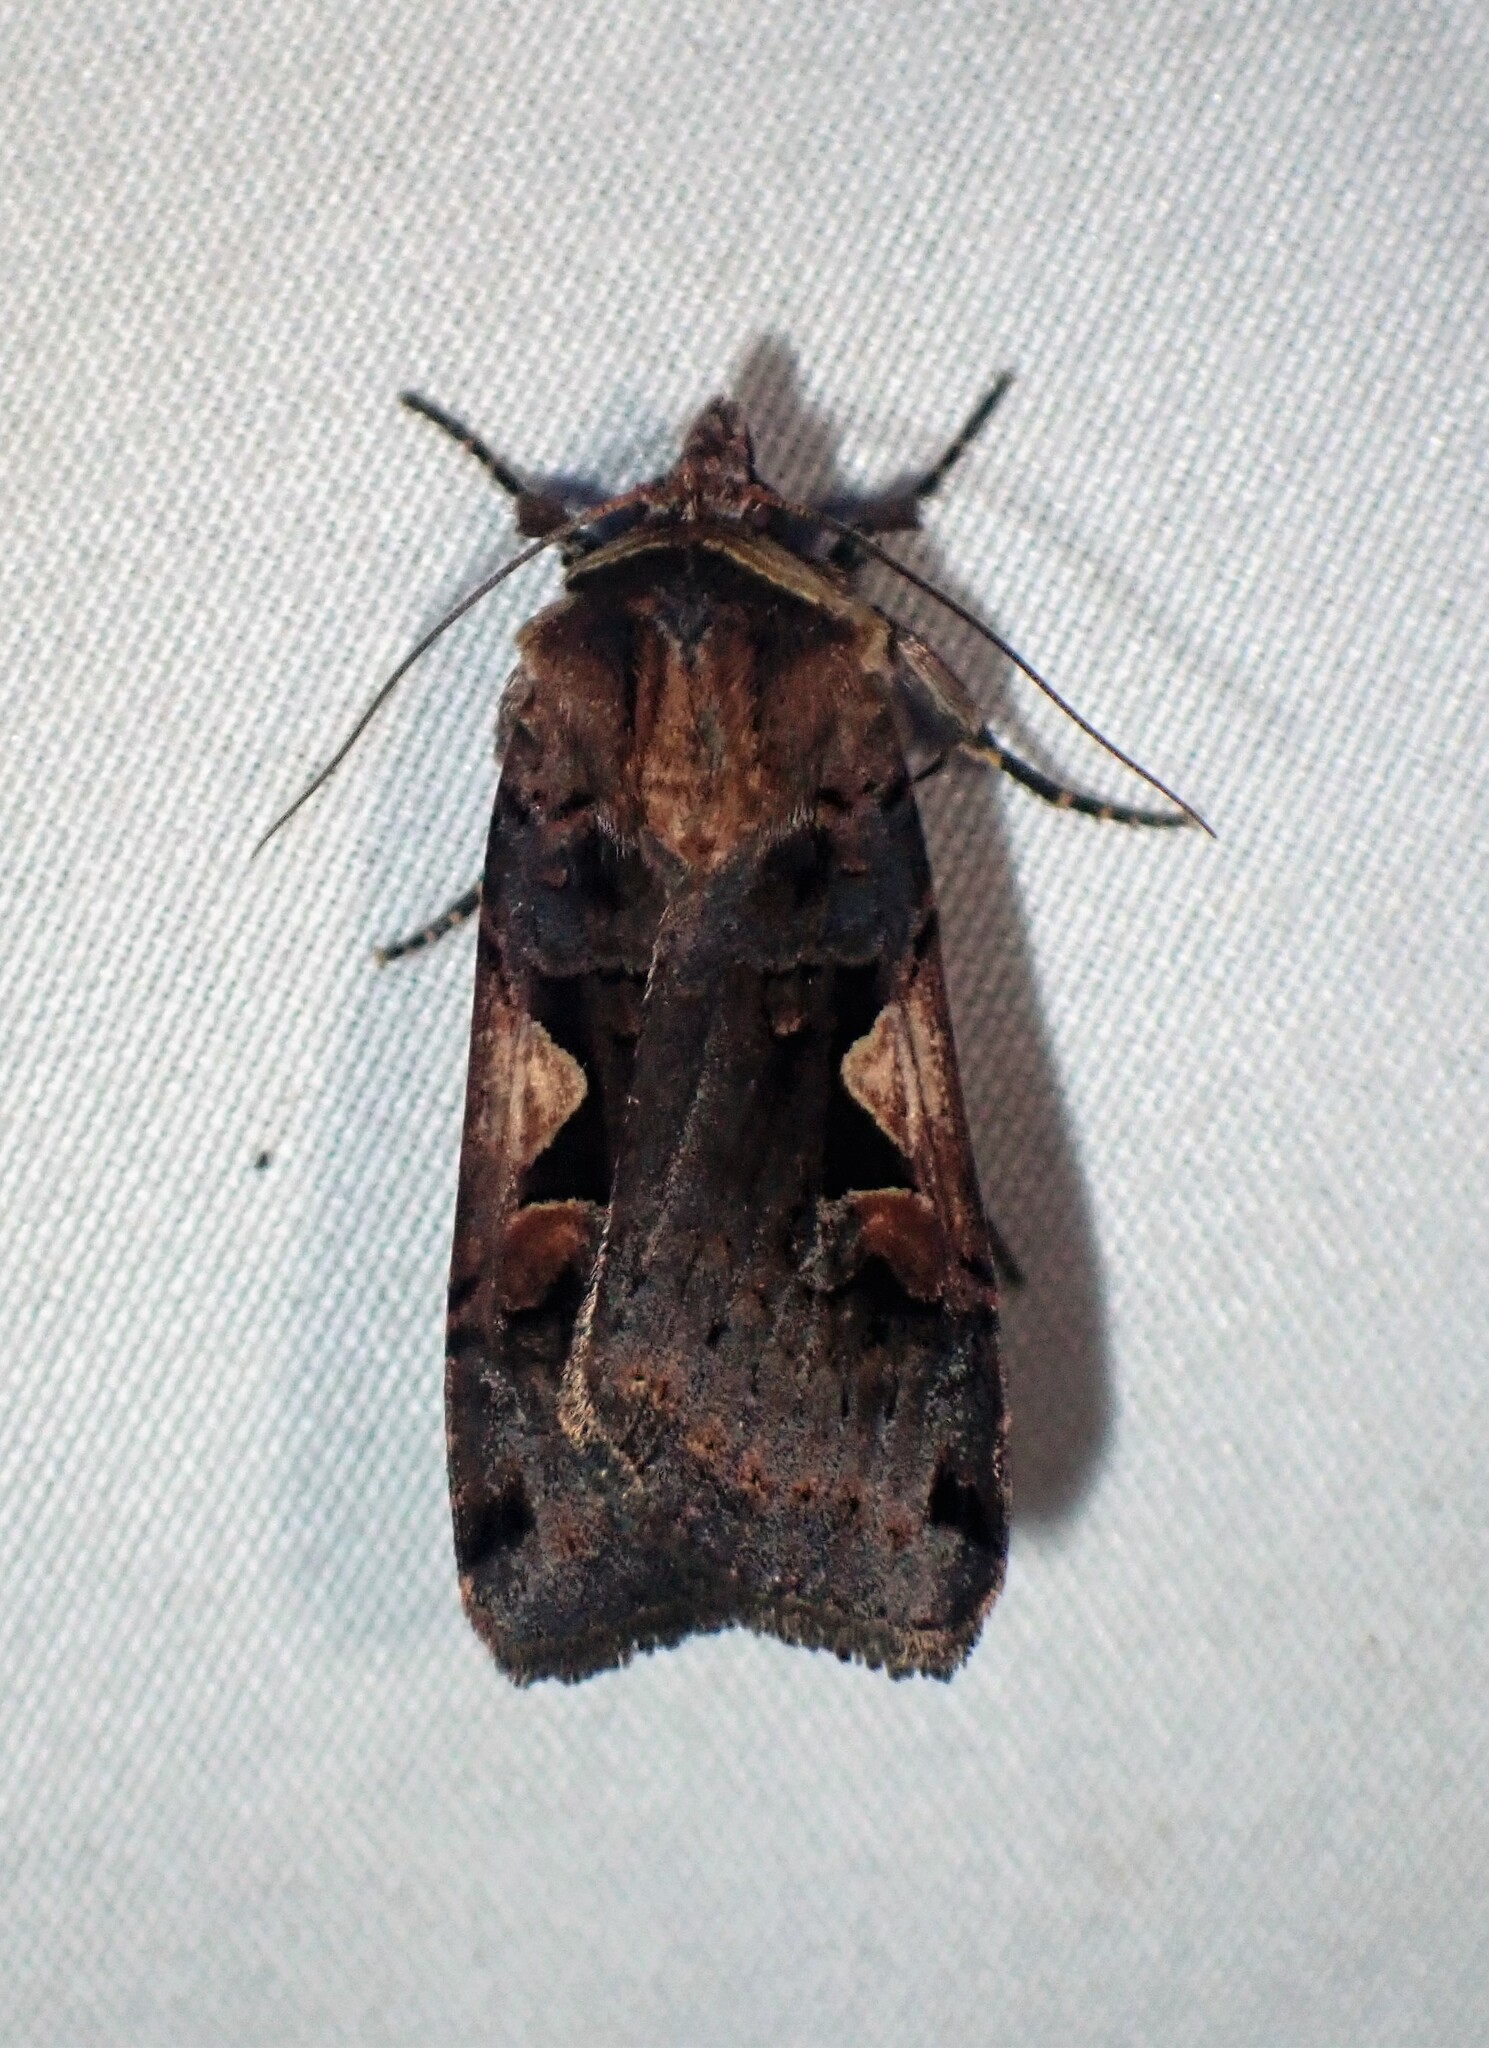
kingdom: Animalia
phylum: Arthropoda
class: Insecta
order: Lepidoptera
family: Noctuidae
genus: Xestia
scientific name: Xestia c-nigrum
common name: Setaceous hebrew character
